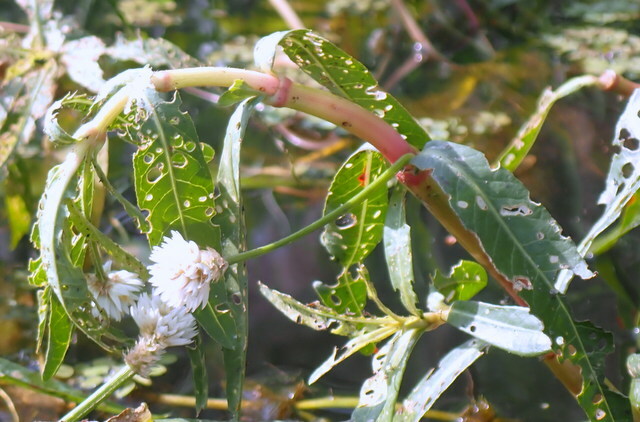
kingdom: Animalia
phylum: Arthropoda
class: Insecta
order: Coleoptera
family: Chrysomelidae
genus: Agasicles
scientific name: Agasicles hygrophila
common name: Alligatorweed flea beetle
